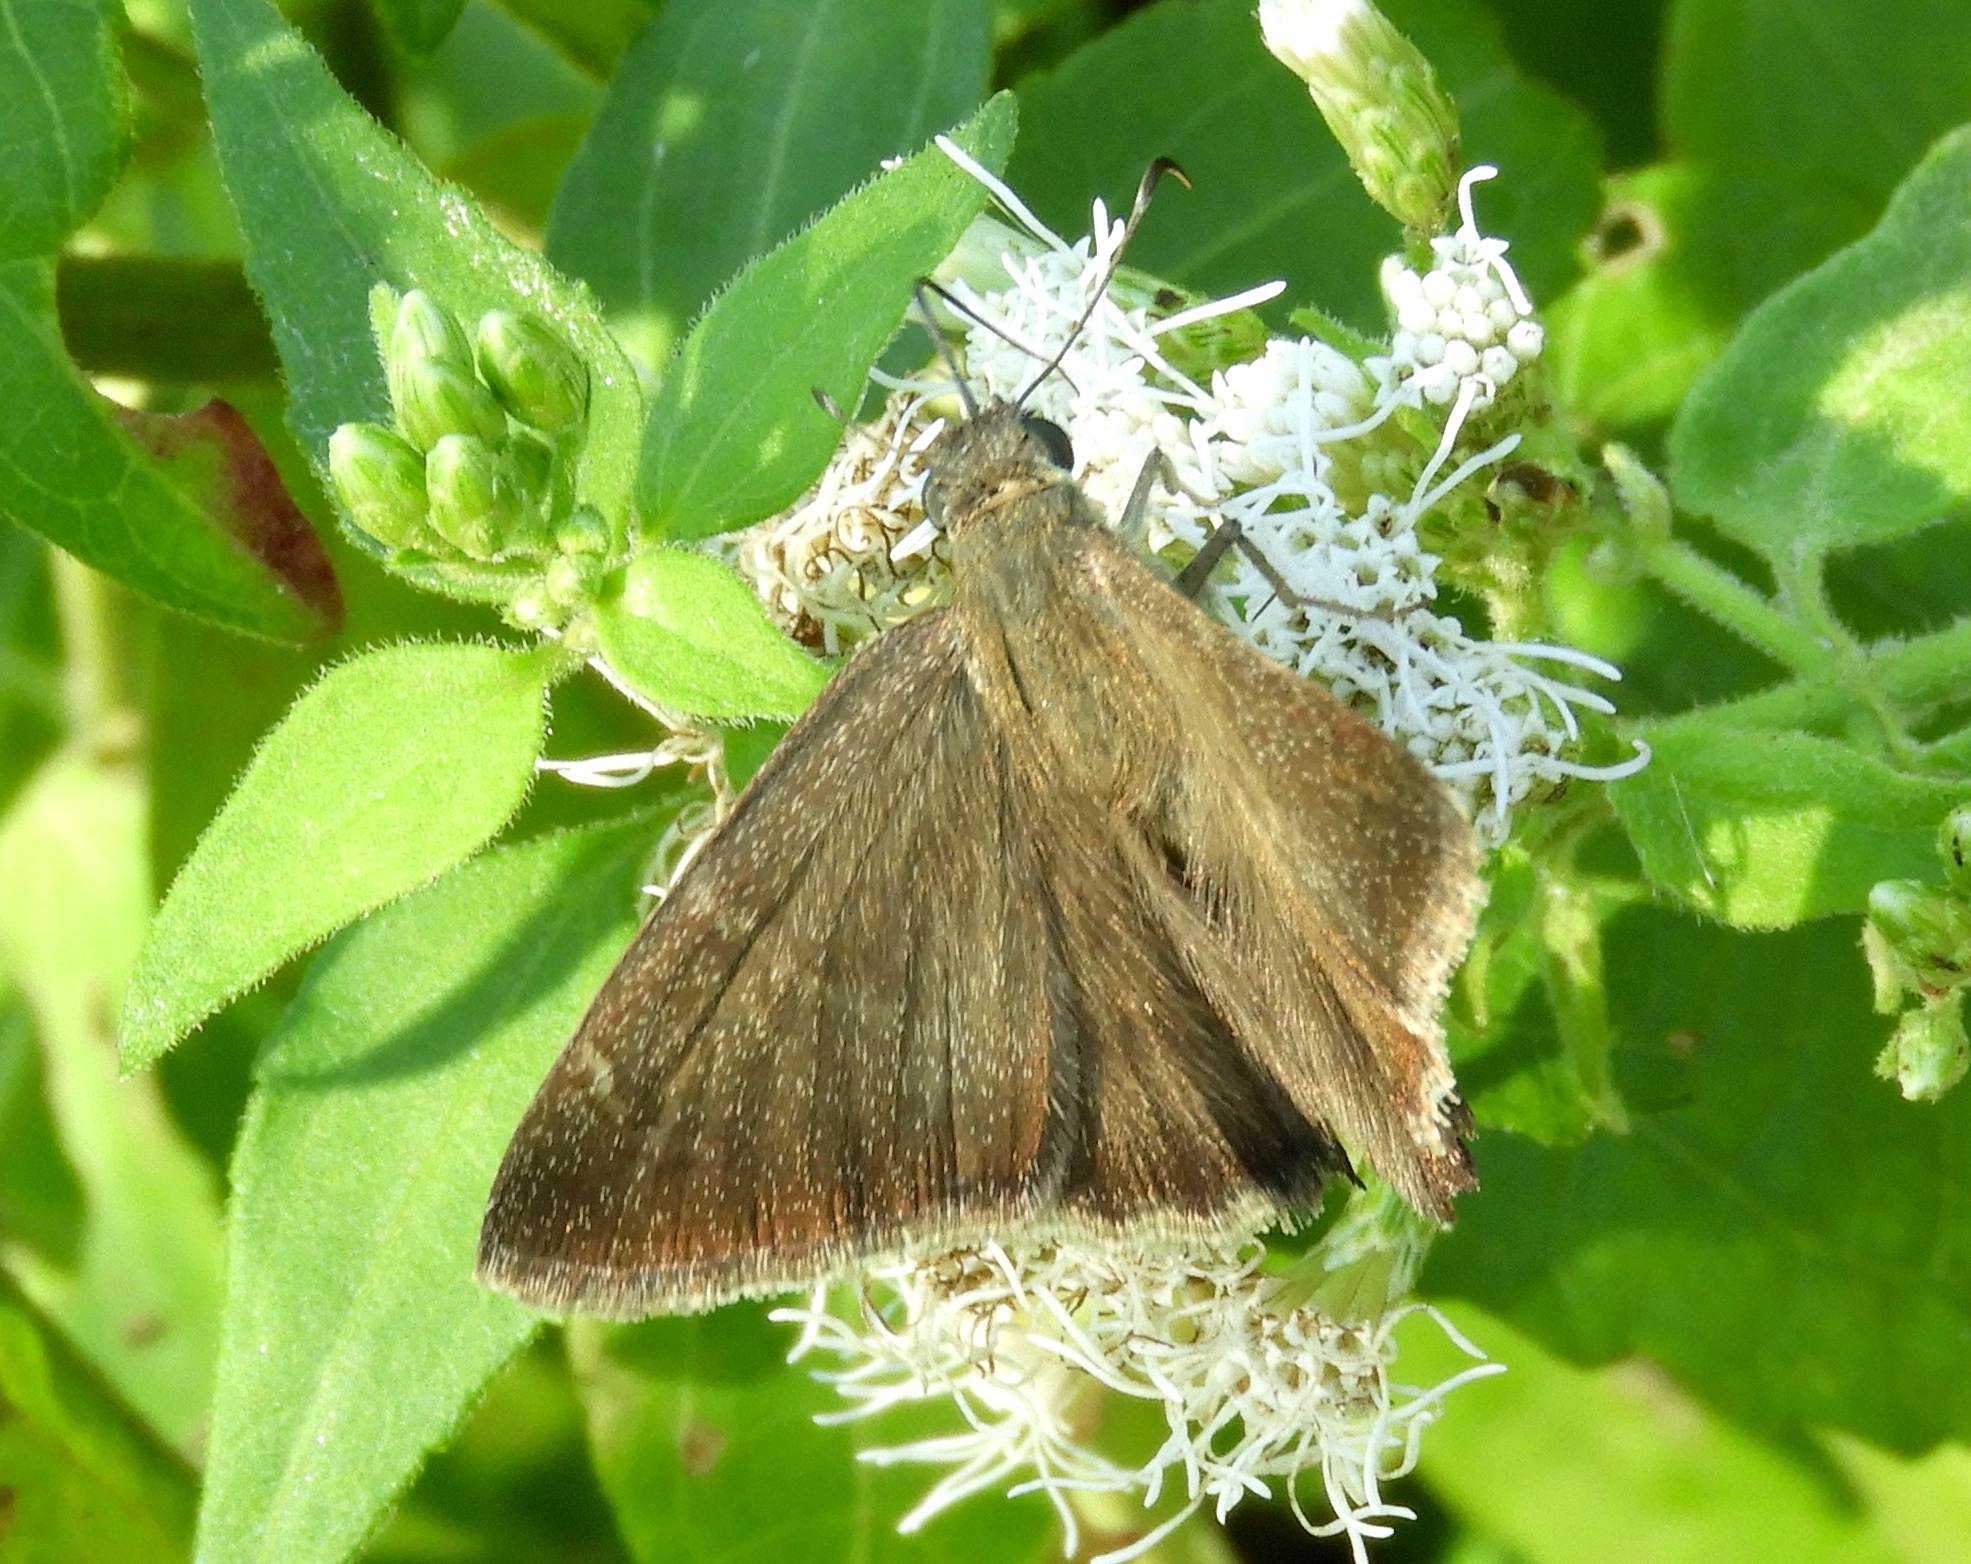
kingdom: Animalia
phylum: Arthropoda
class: Insecta
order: Lepidoptera
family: Hesperiidae
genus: Urbanus
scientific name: Urbanus procne
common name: Brown longtail
